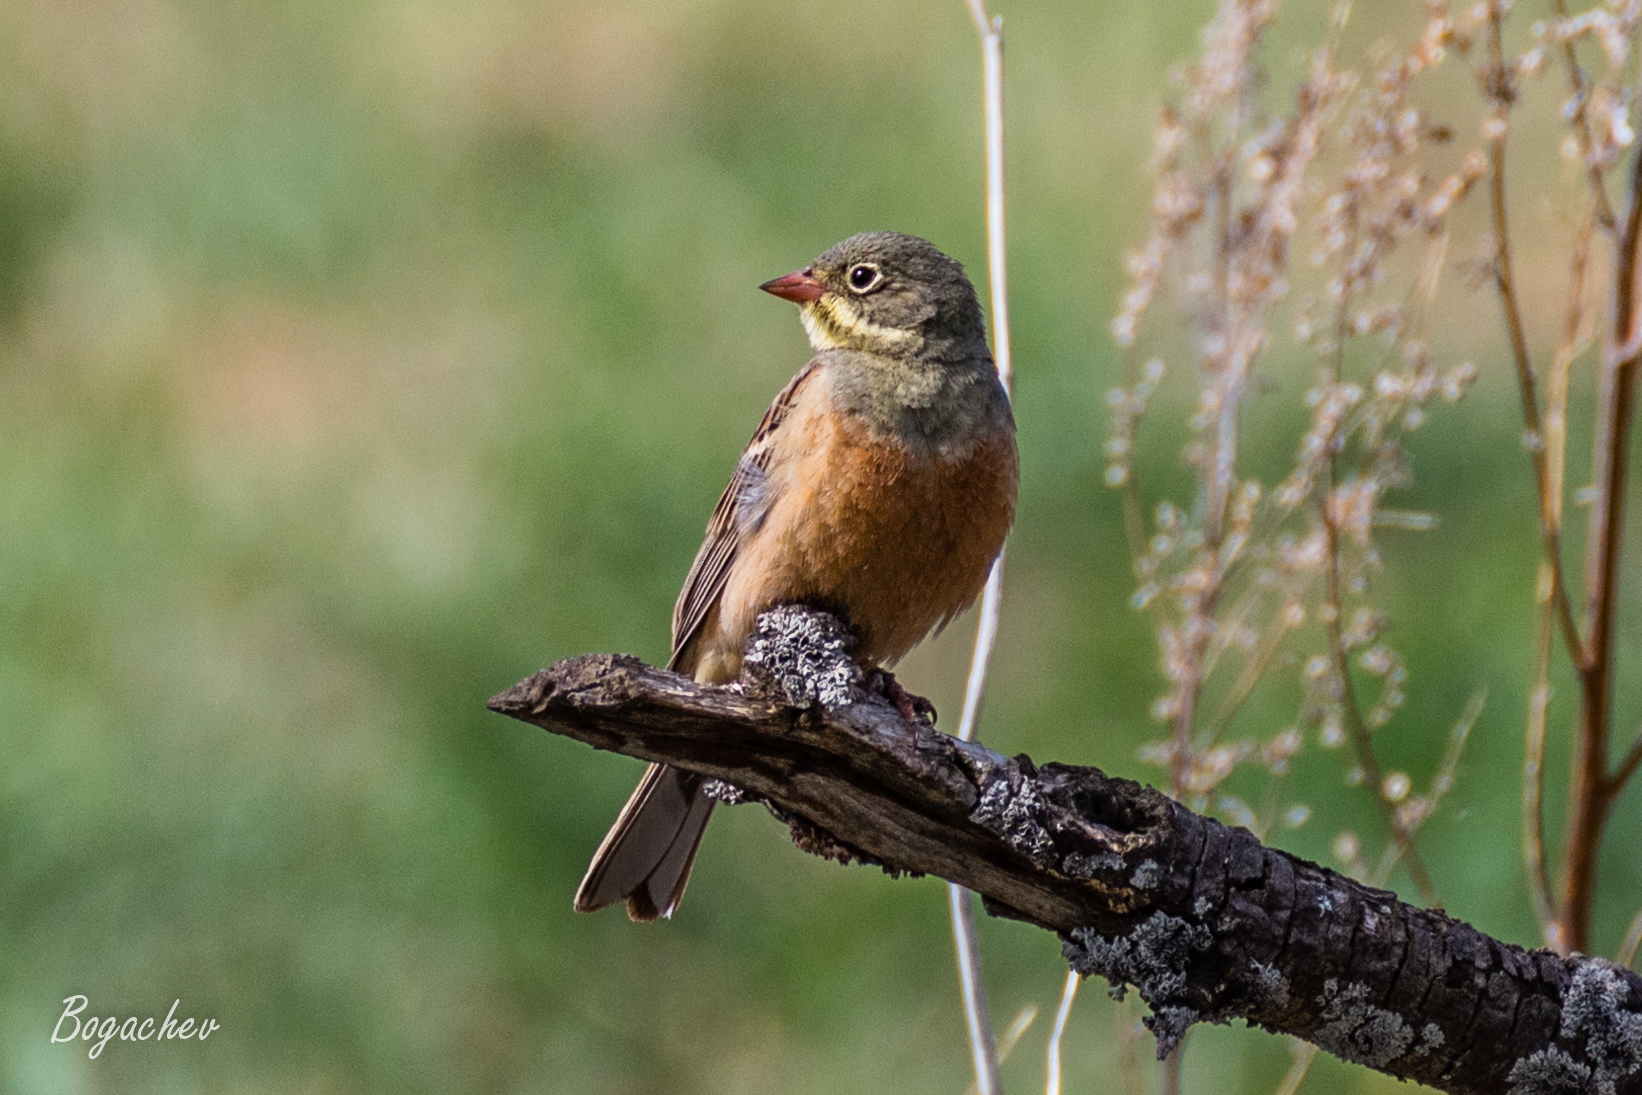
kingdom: Animalia
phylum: Chordata
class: Aves
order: Passeriformes
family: Emberizidae
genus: Emberiza
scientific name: Emberiza hortulana
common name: Ortolan bunting
